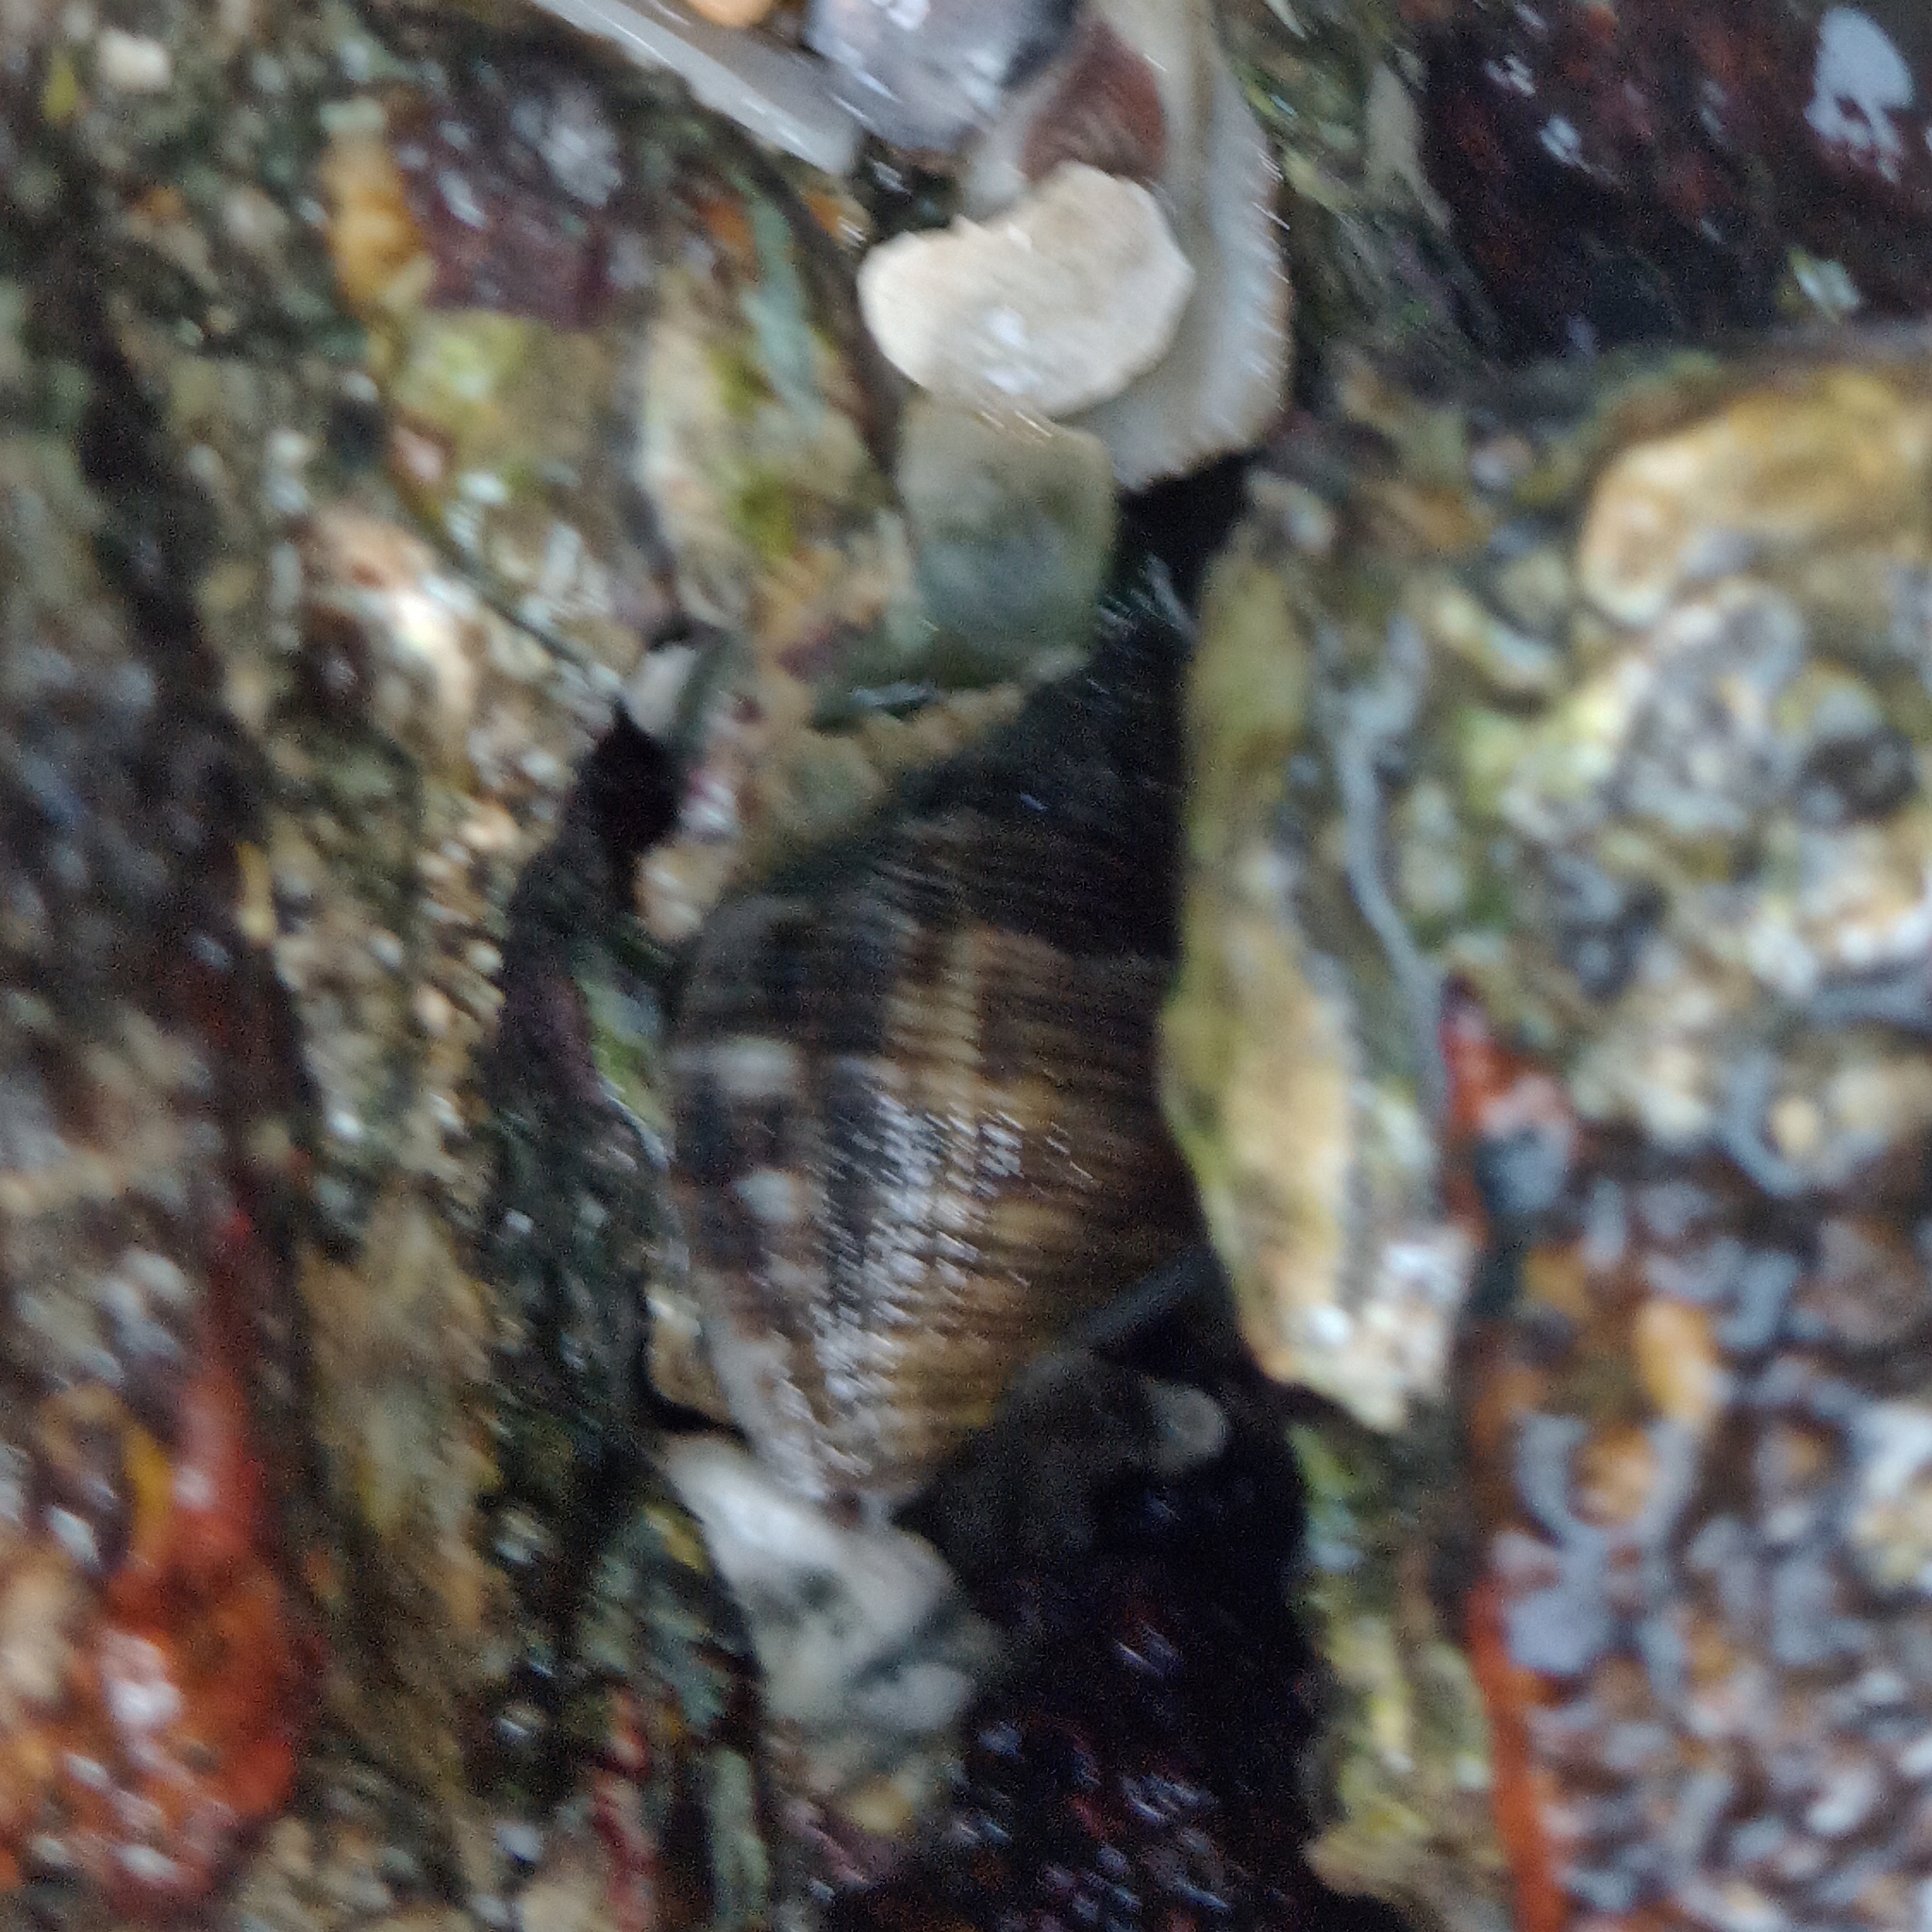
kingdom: Animalia
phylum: Mollusca
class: Gastropoda
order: Neogastropoda
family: Muricidae
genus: Stramonita
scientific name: Stramonita brasiliensis
